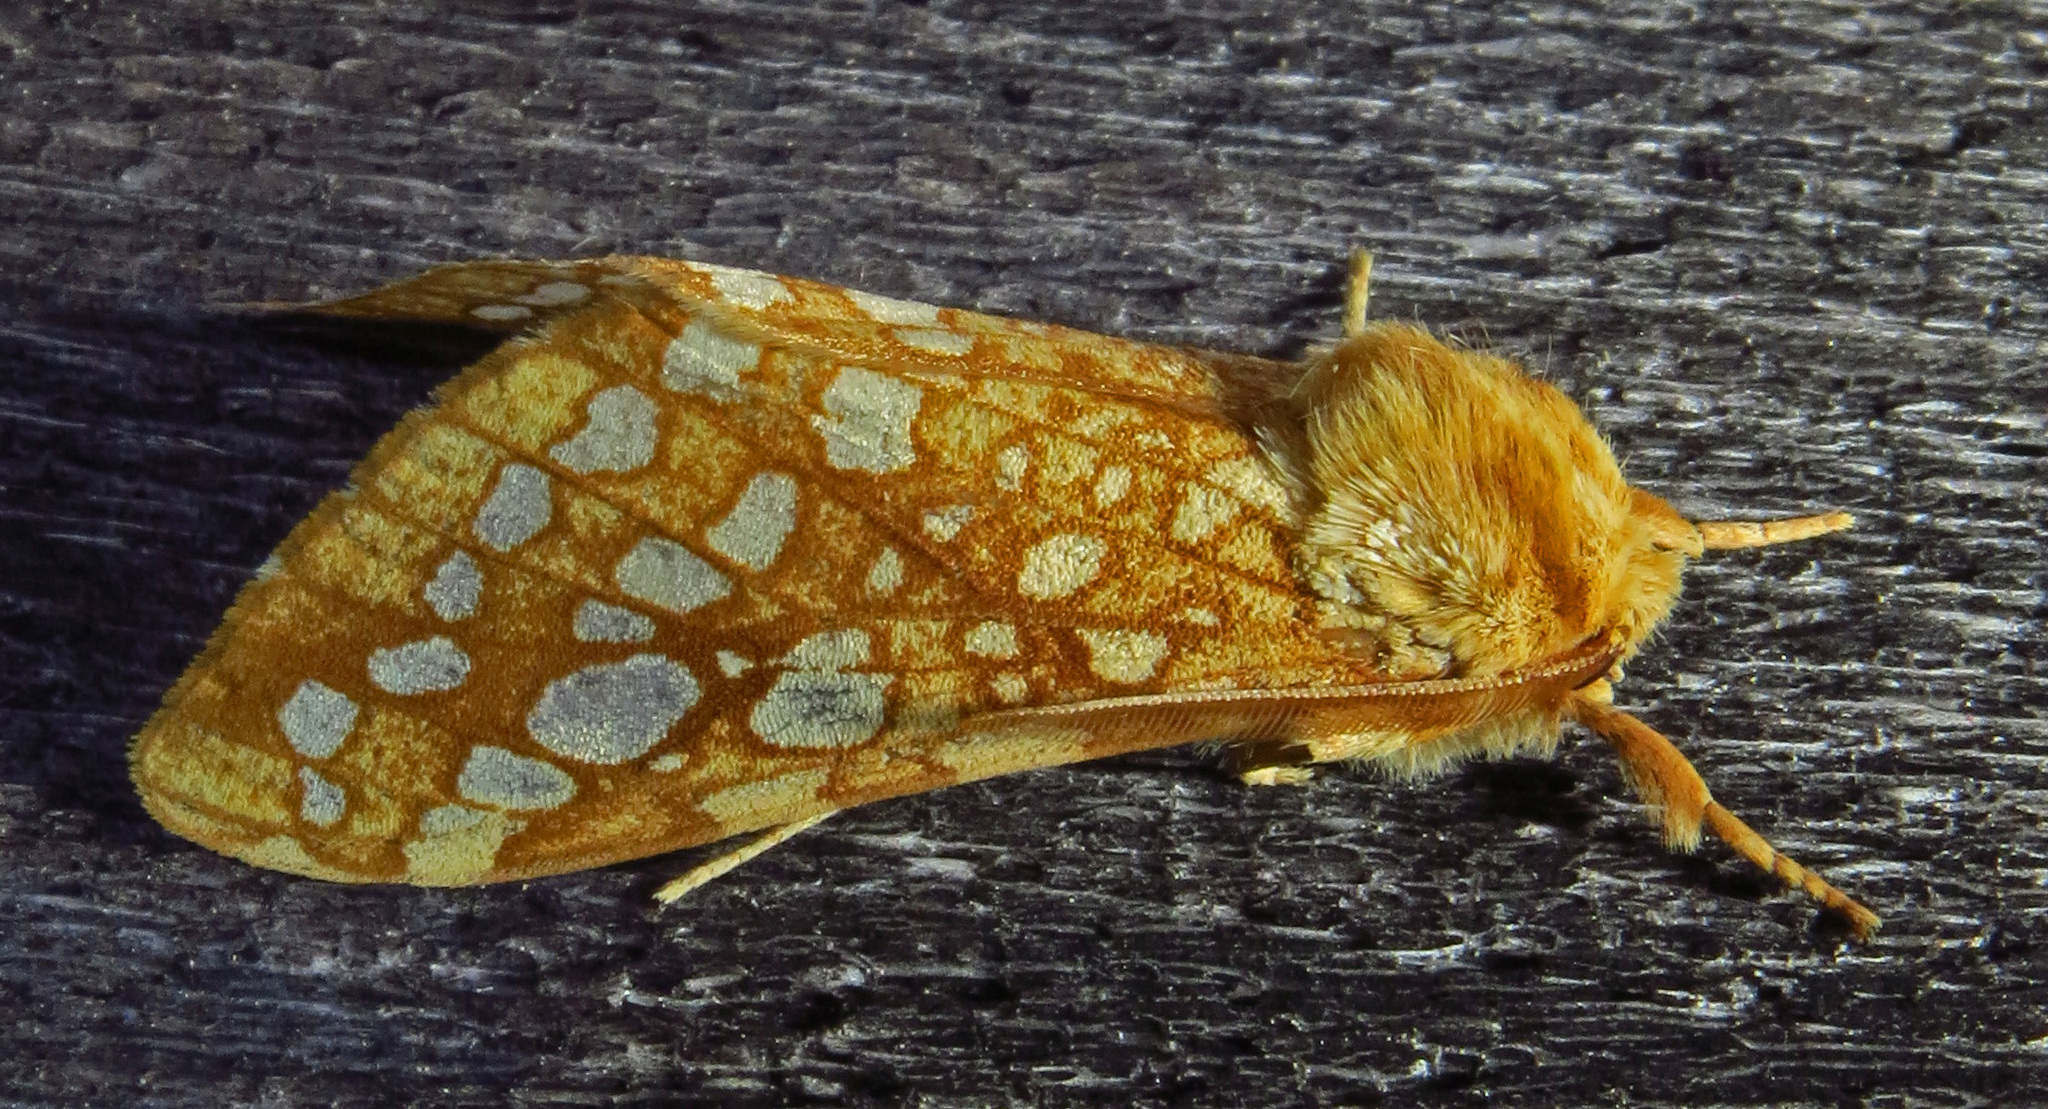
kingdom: Animalia
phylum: Arthropoda
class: Insecta
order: Lepidoptera
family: Erebidae
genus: Lophocampa
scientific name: Lophocampa caryae
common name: Hickory tussock moth
